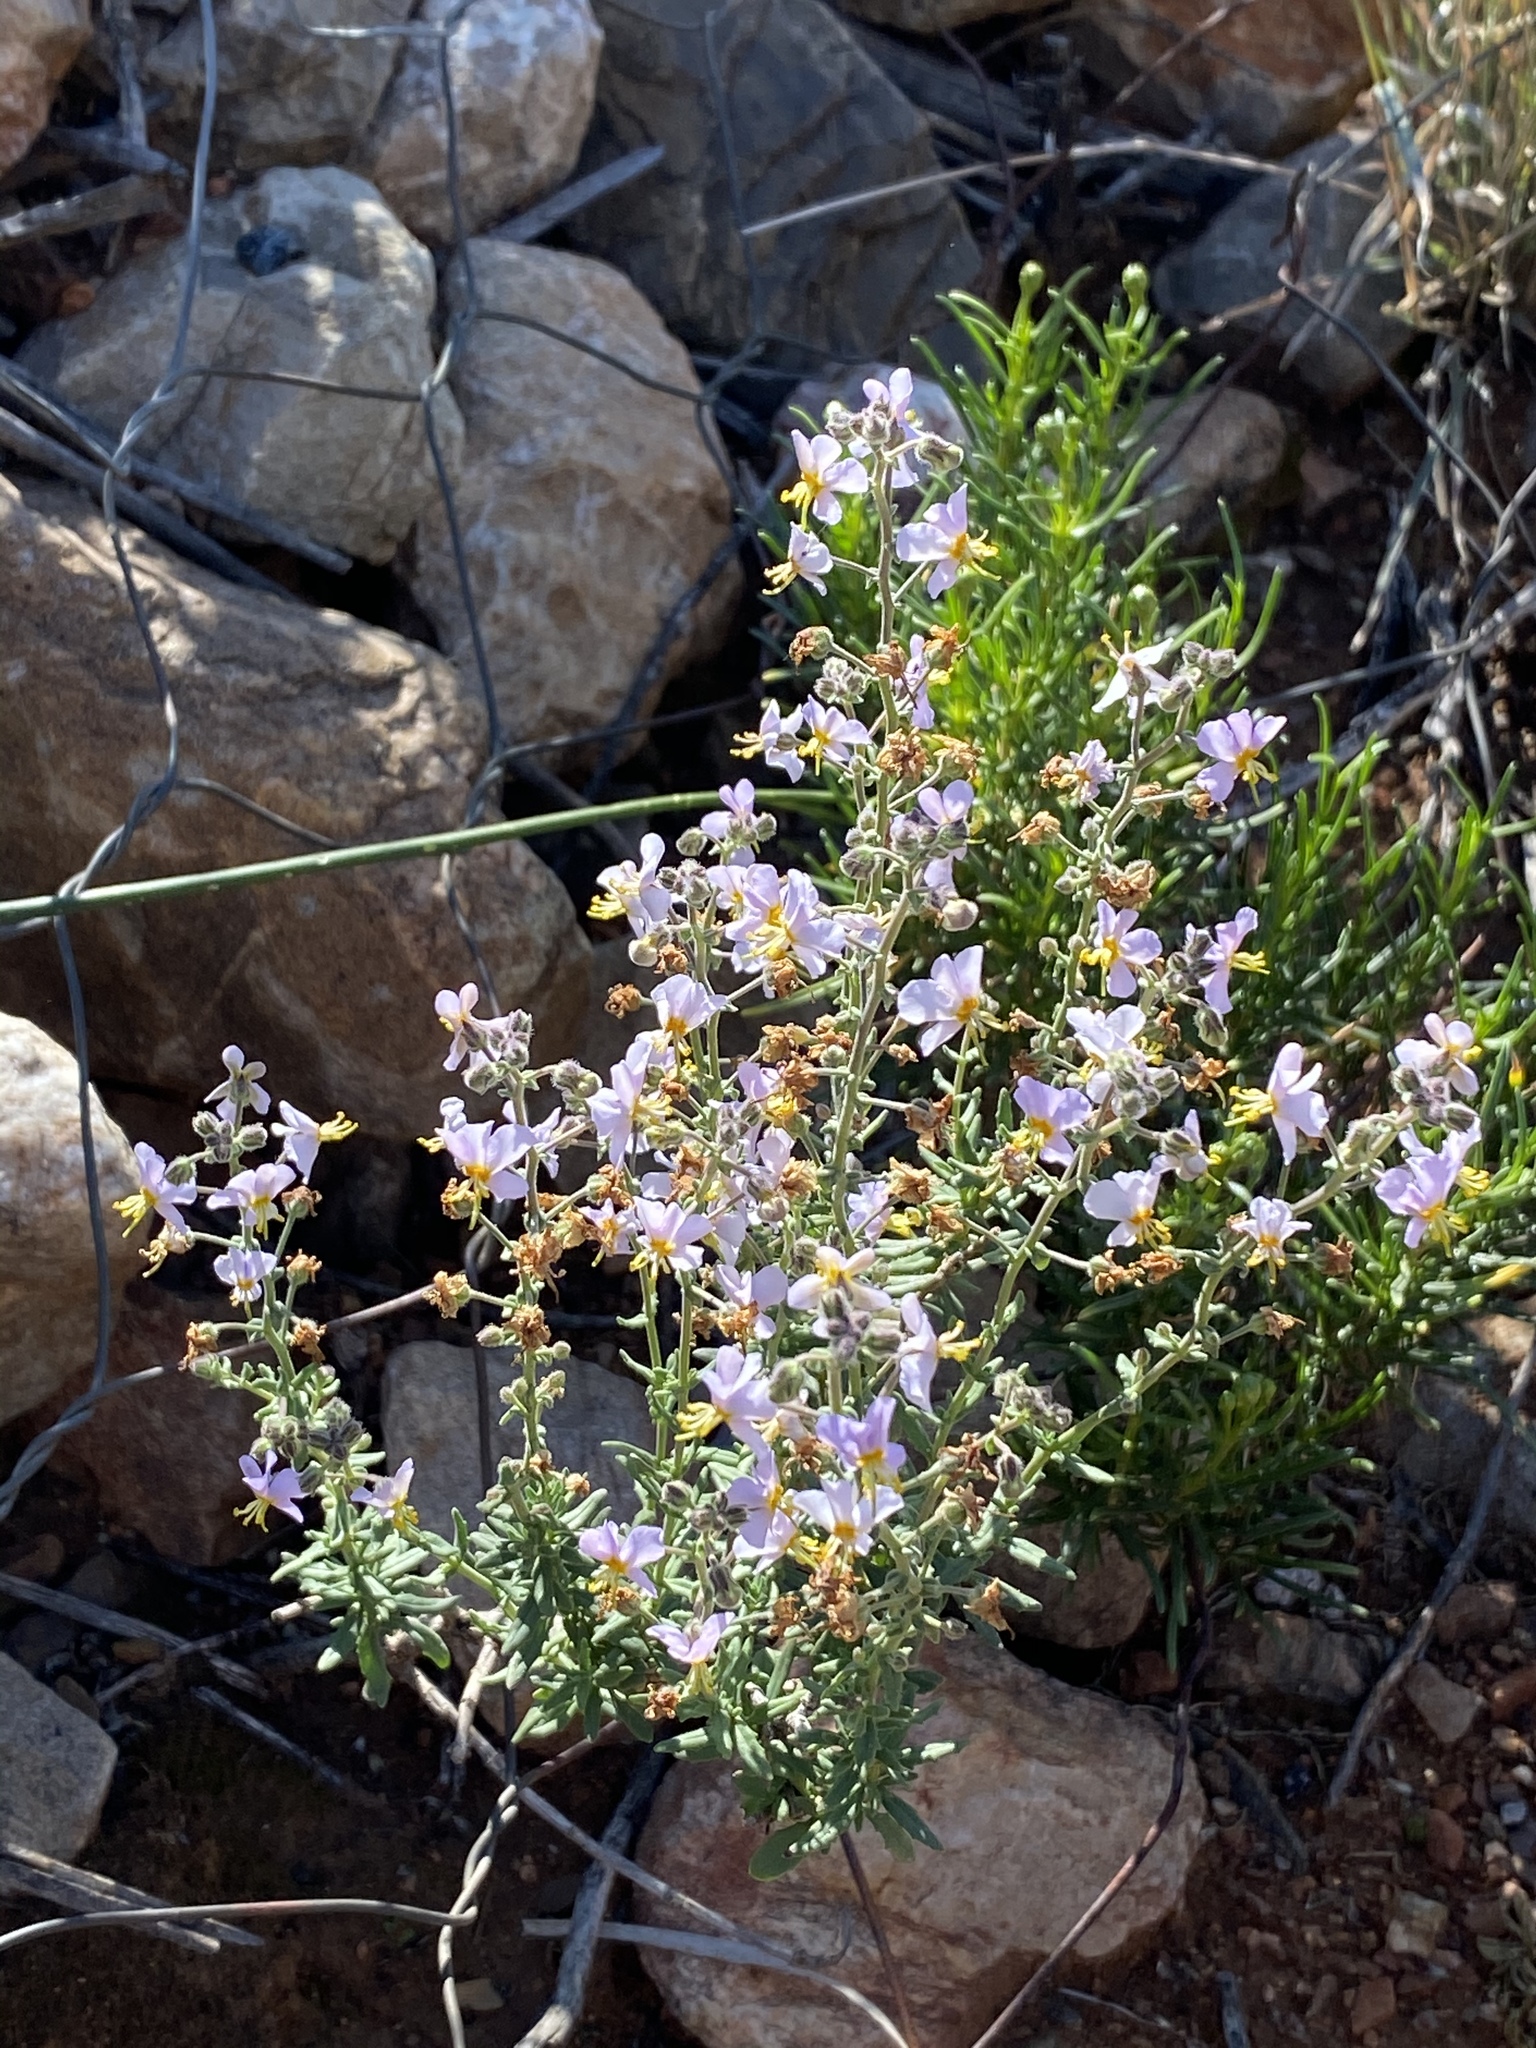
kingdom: Plantae
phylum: Tracheophyta
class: Magnoliopsida
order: Lamiales
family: Scrophulariaceae
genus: Chaenostoma
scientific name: Chaenostoma caeruleum
